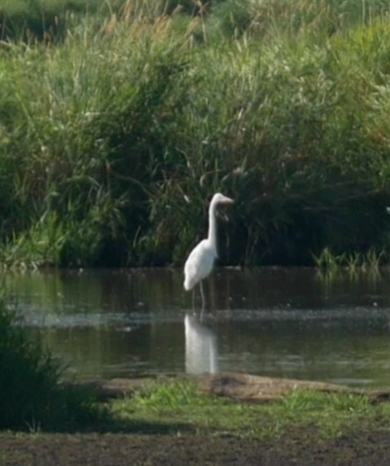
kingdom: Animalia
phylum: Chordata
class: Aves
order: Pelecaniformes
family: Ardeidae
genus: Ardea
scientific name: Ardea alba
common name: Great egret
